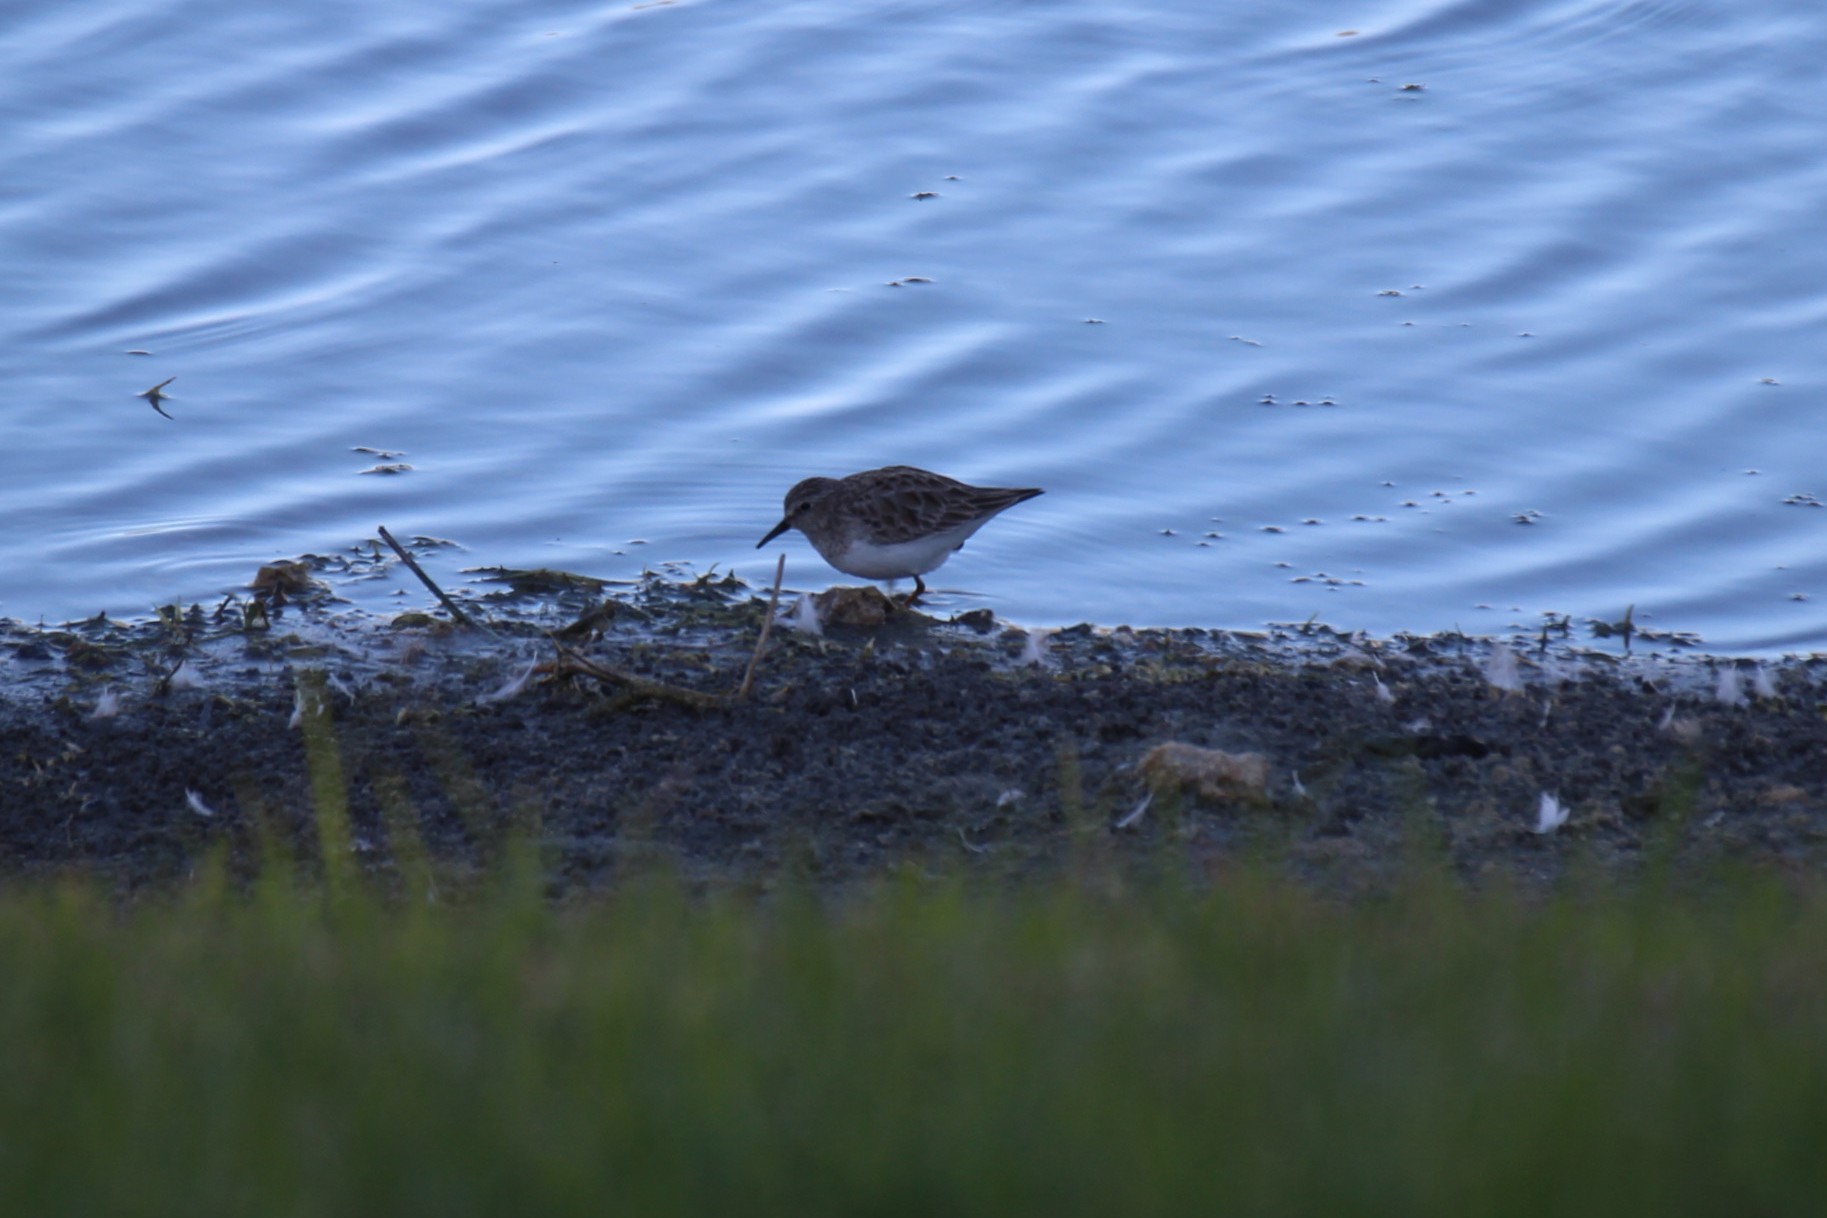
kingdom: Animalia
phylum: Chordata
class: Aves
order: Charadriiformes
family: Scolopacidae
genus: Calidris
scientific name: Calidris minutilla
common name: Least sandpiper
